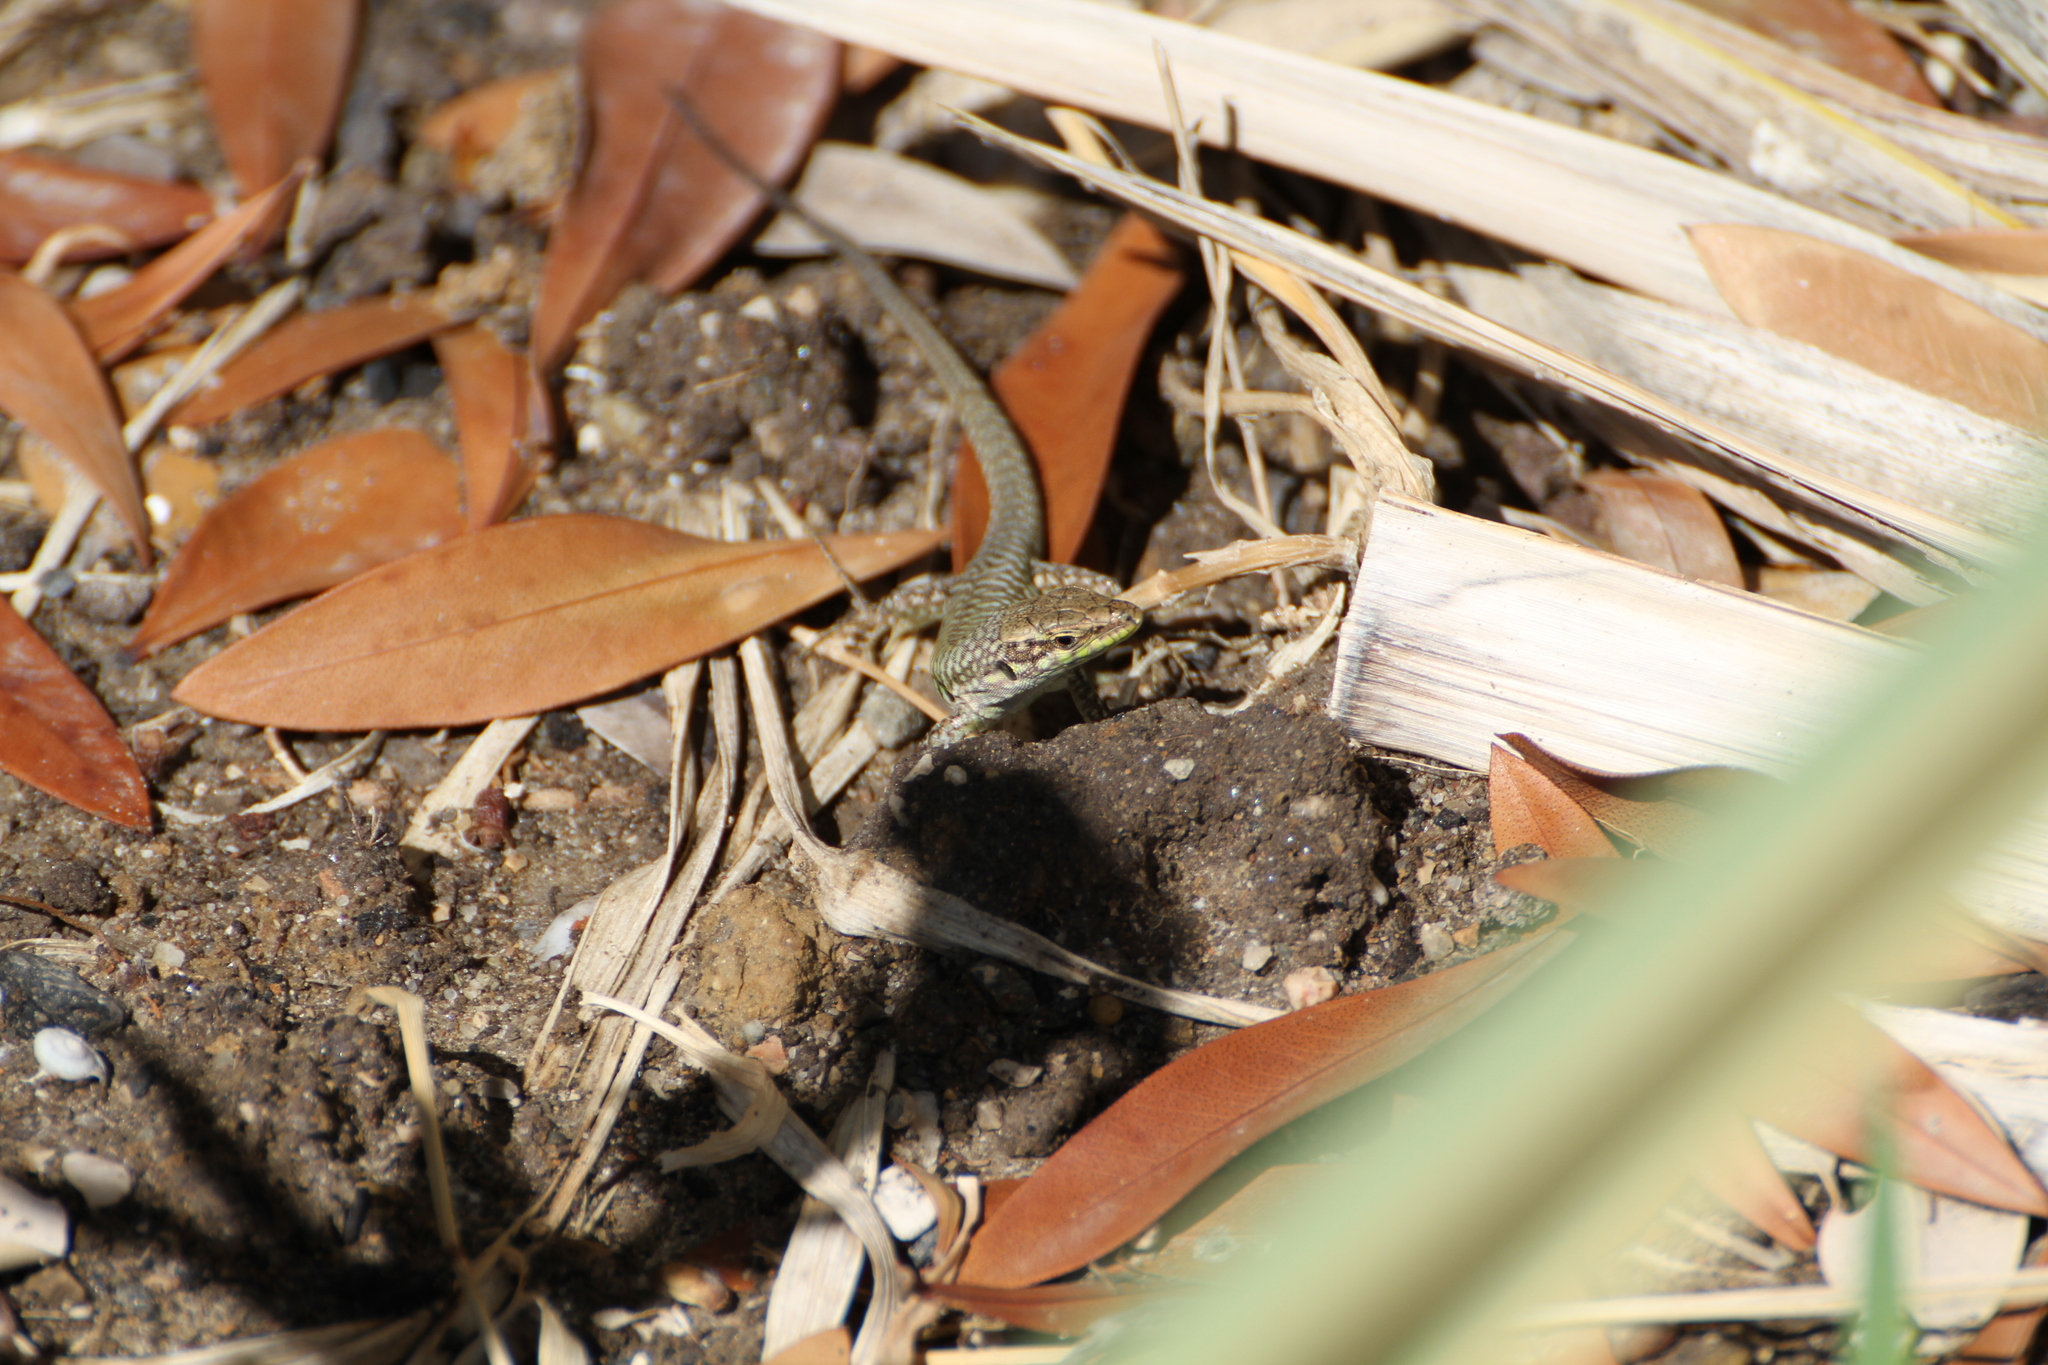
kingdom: Animalia
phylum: Chordata
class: Squamata
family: Lacertidae
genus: Podarcis
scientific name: Podarcis siculus
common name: Italian wall lizard
